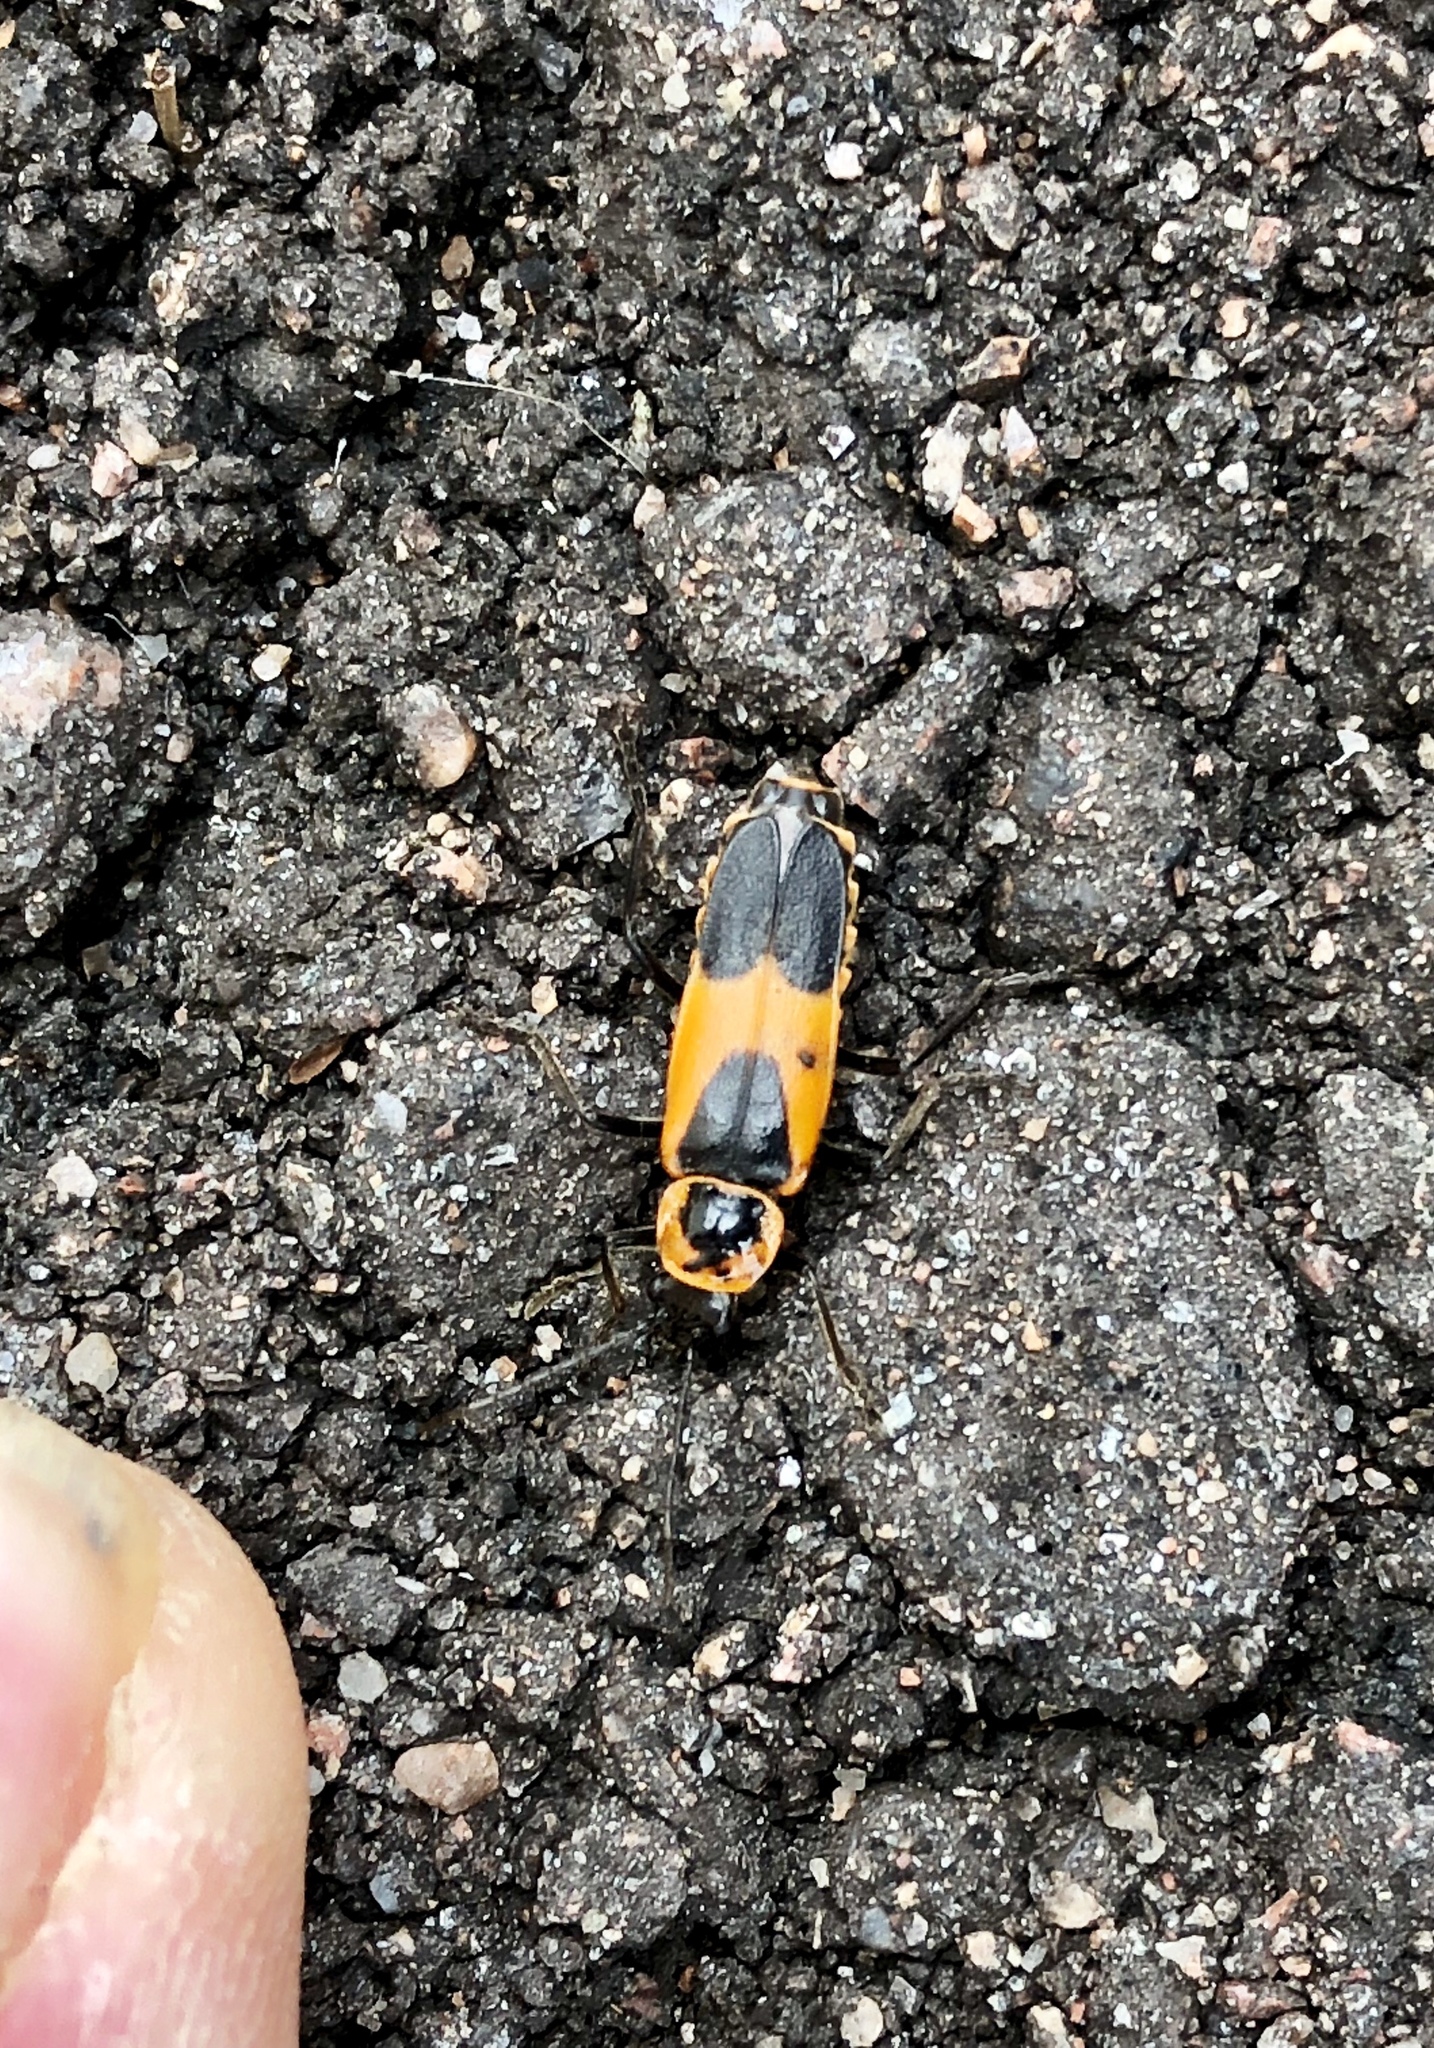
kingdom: Animalia
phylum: Arthropoda
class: Insecta
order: Coleoptera
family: Cantharidae
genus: Chauliognathus
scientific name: Chauliognathus basalis
